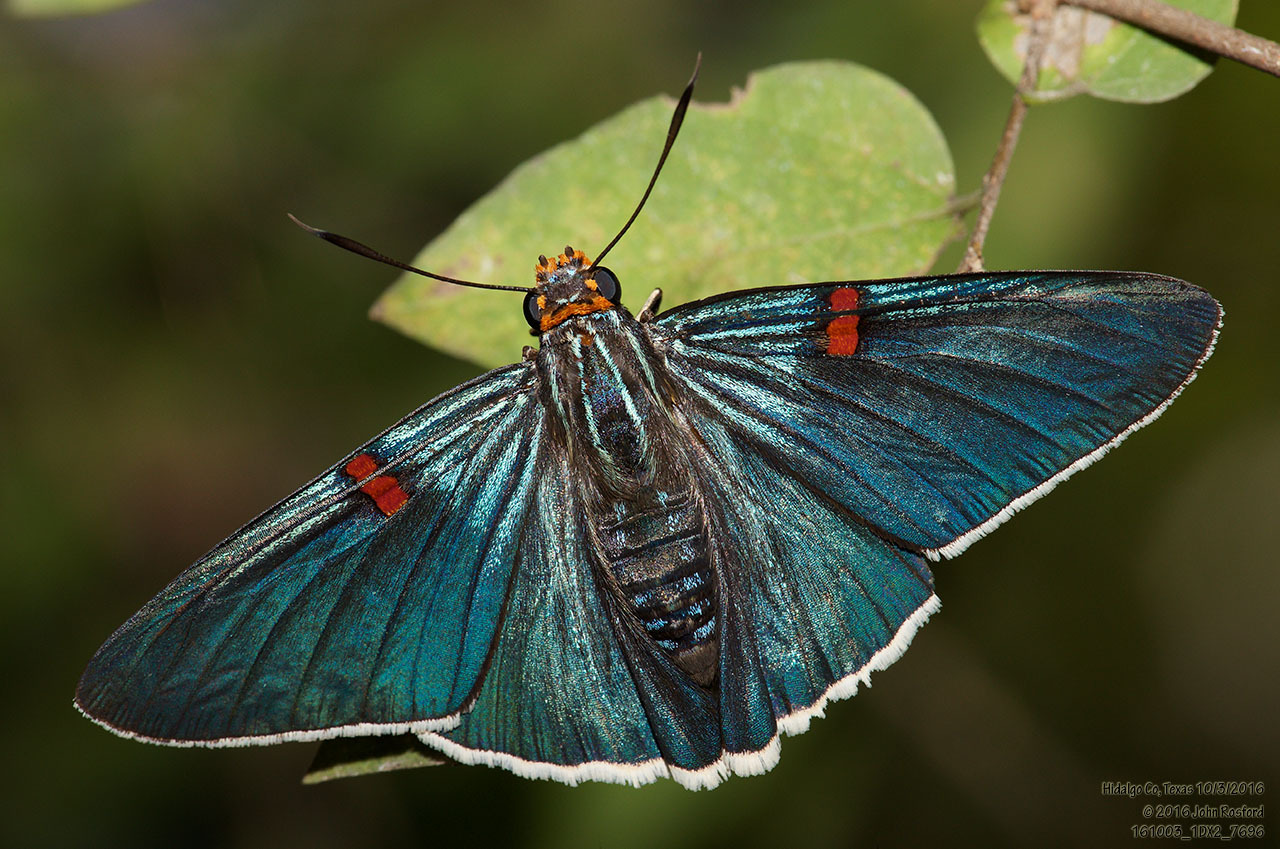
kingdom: Animalia
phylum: Arthropoda
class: Insecta
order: Lepidoptera
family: Hesperiidae
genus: Phocides
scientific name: Phocides lilea
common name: Guava skipper
